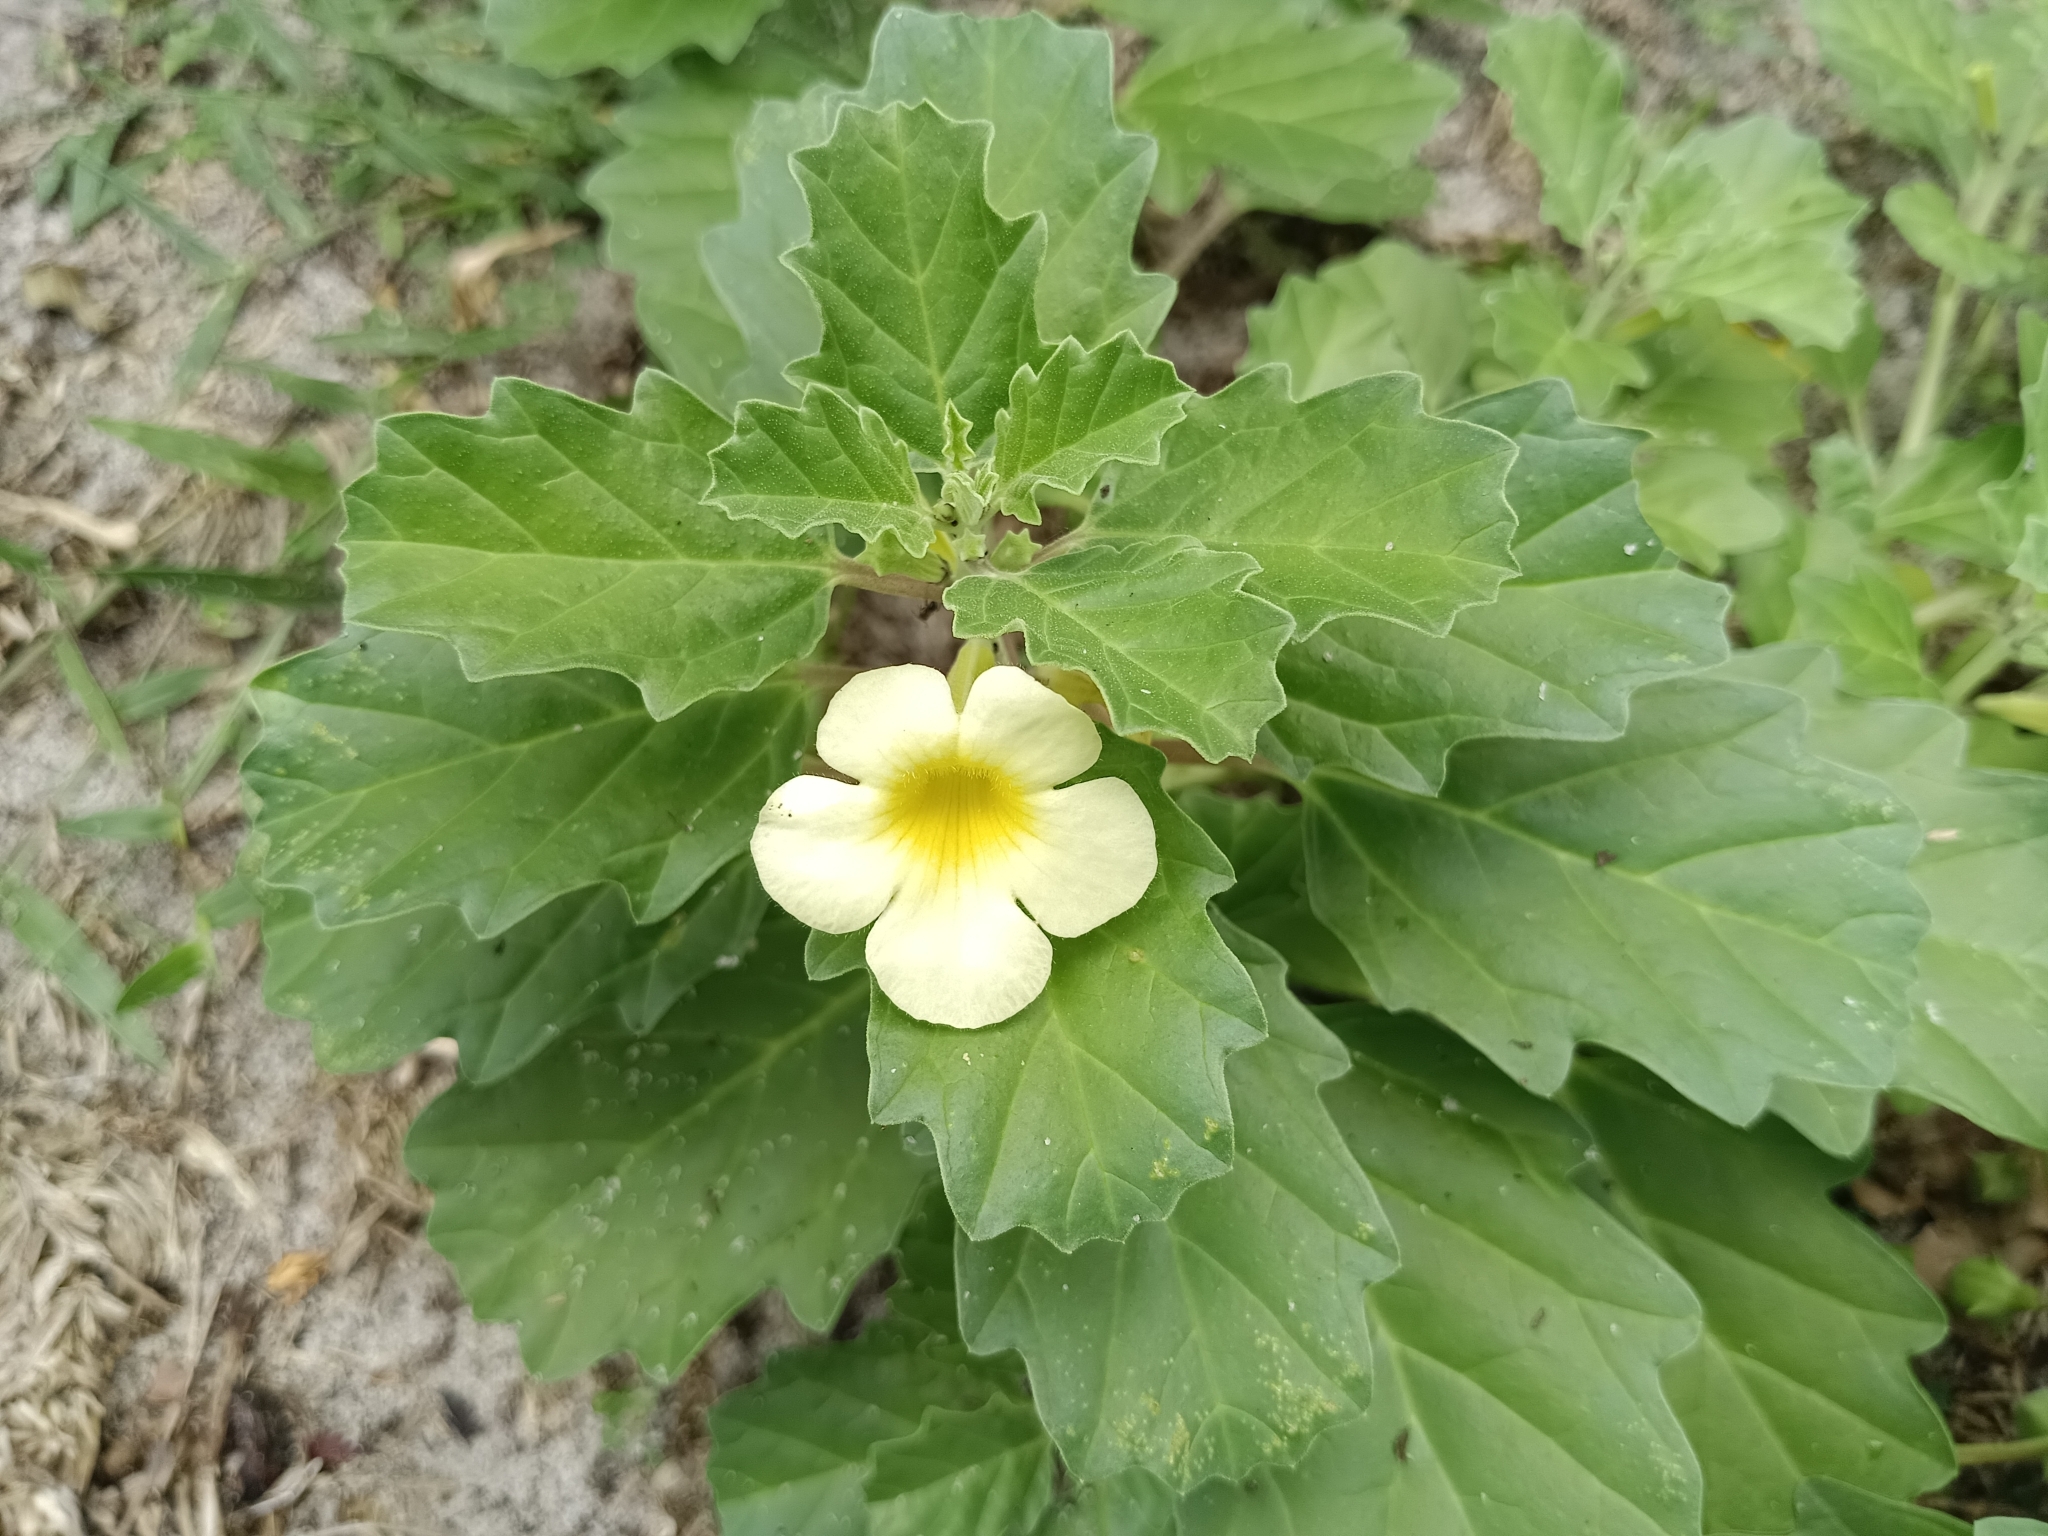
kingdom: Plantae
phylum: Tracheophyta
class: Magnoliopsida
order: Lamiales
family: Pedaliaceae
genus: Pedalium
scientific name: Pedalium murex
